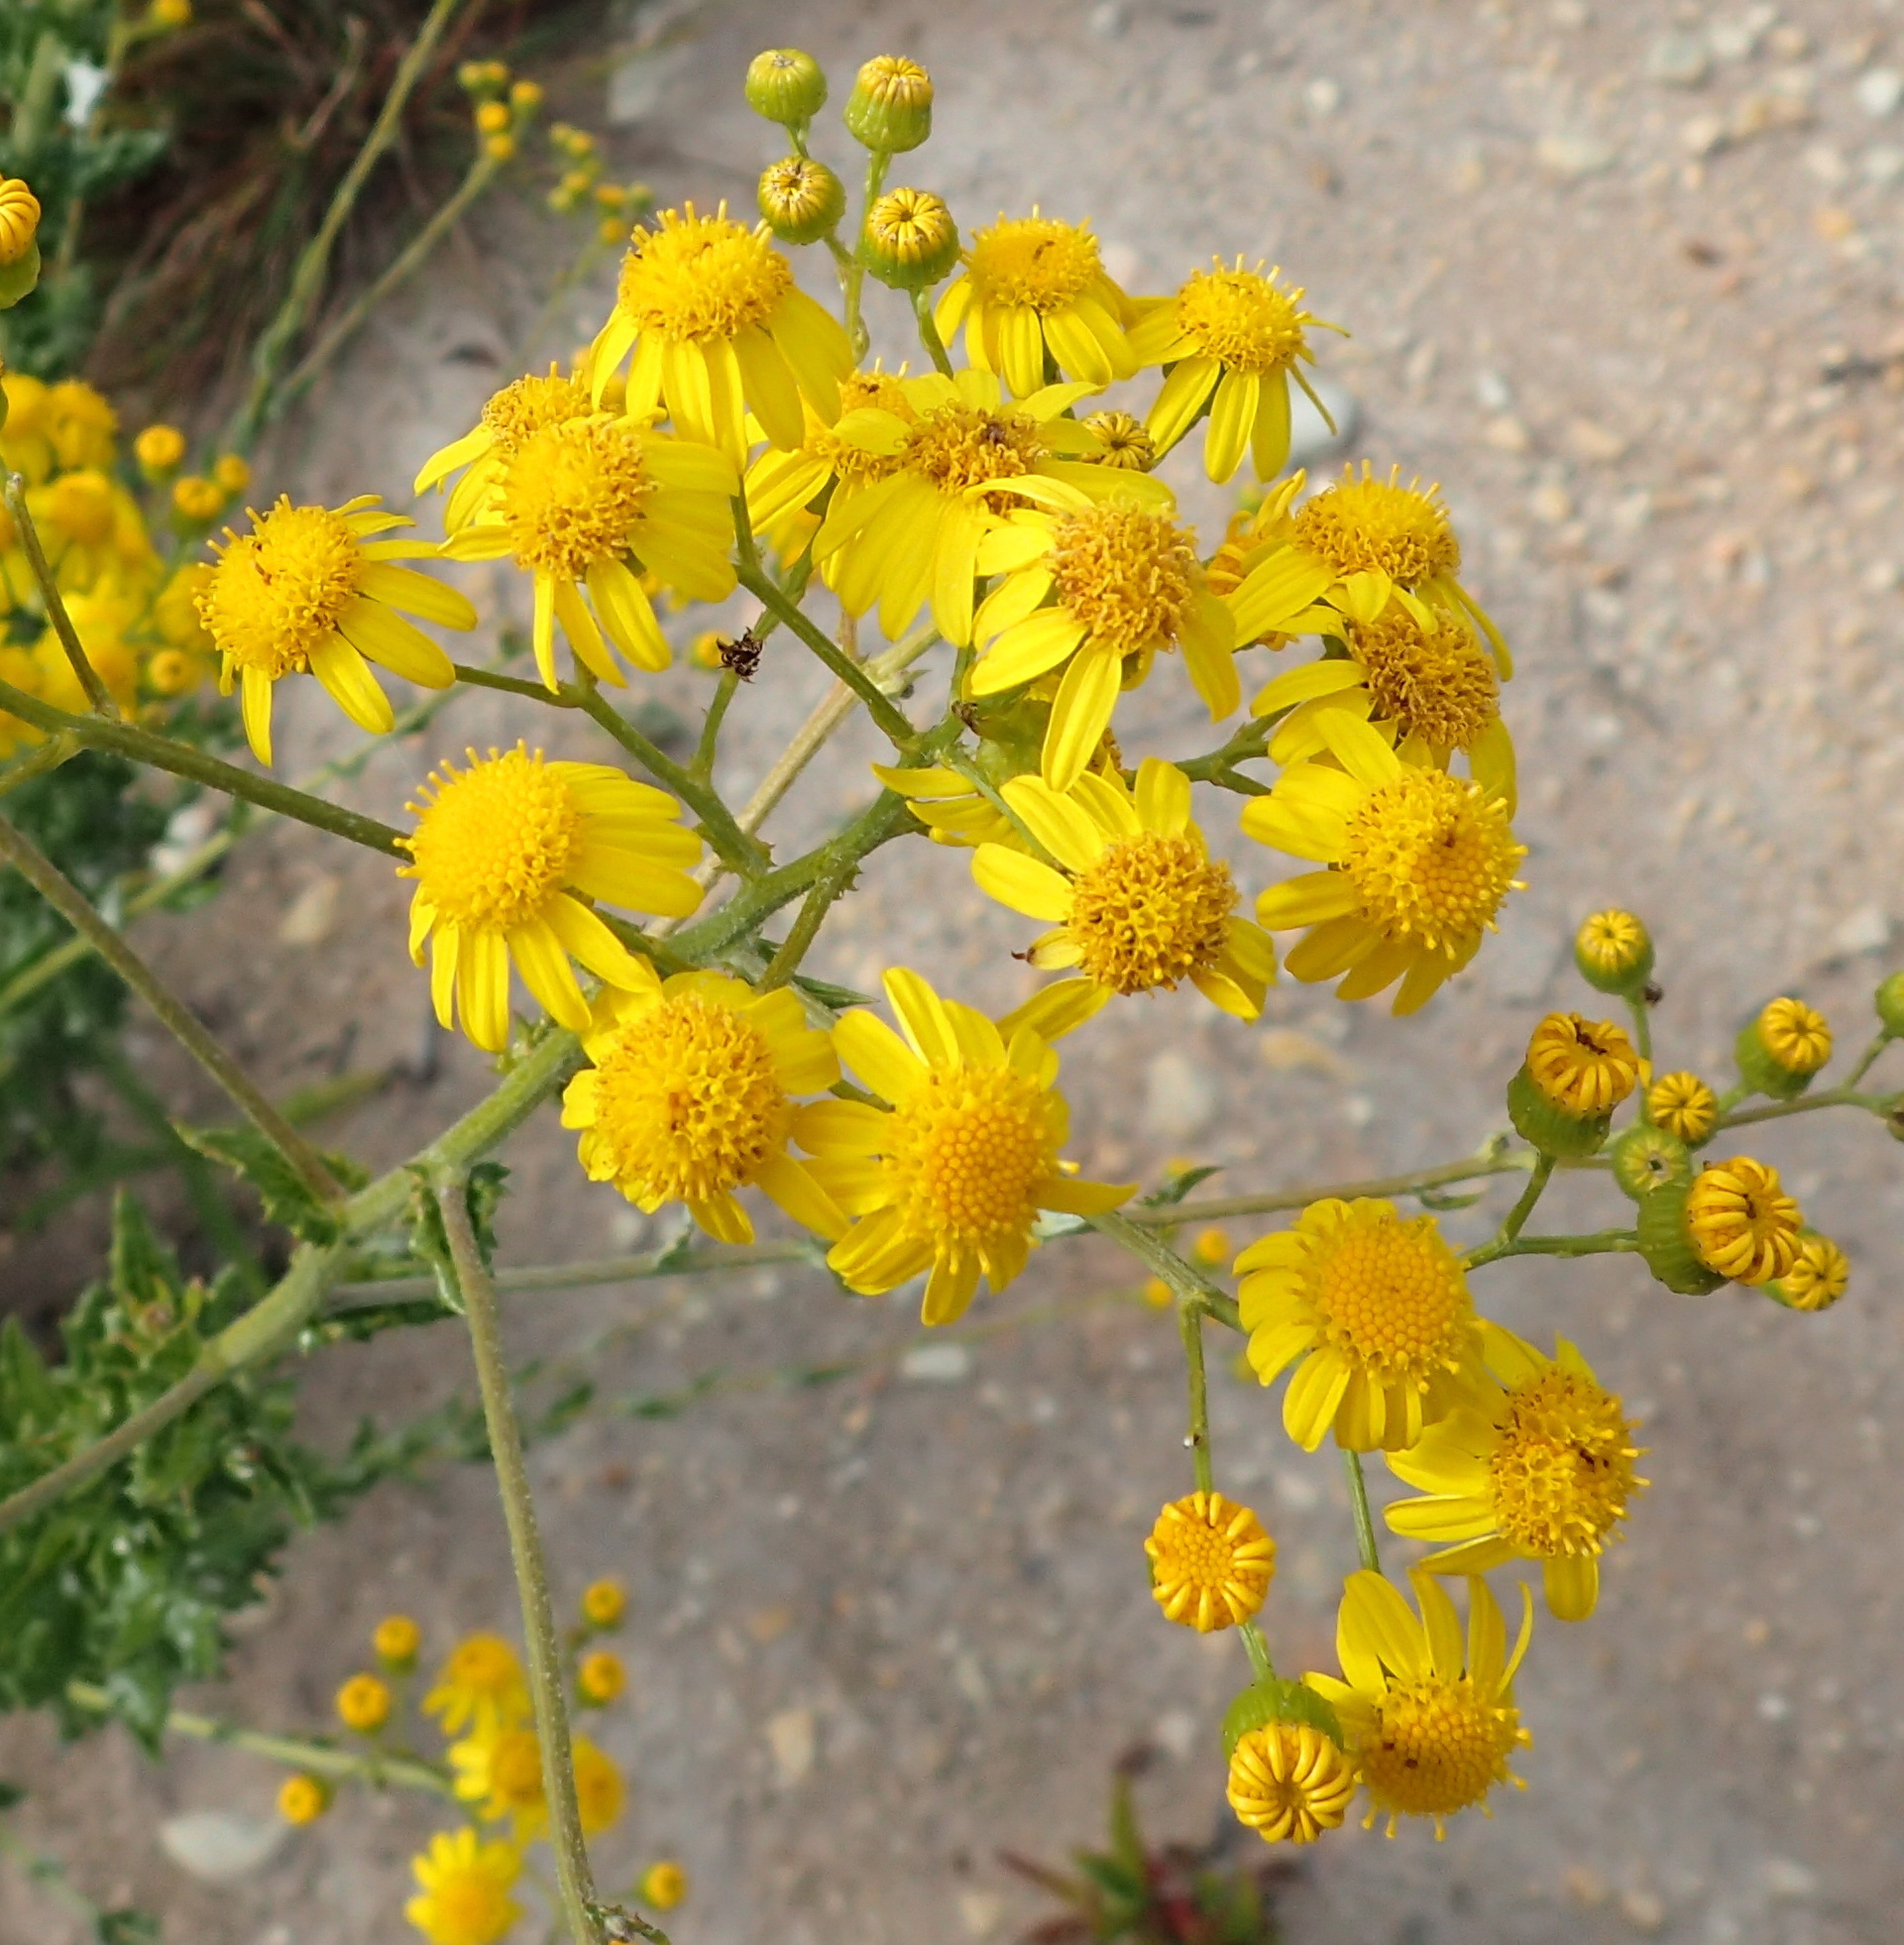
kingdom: Plantae
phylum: Tracheophyta
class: Magnoliopsida
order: Asterales
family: Asteraceae
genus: Senecio
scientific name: Senecio ilicifolius
